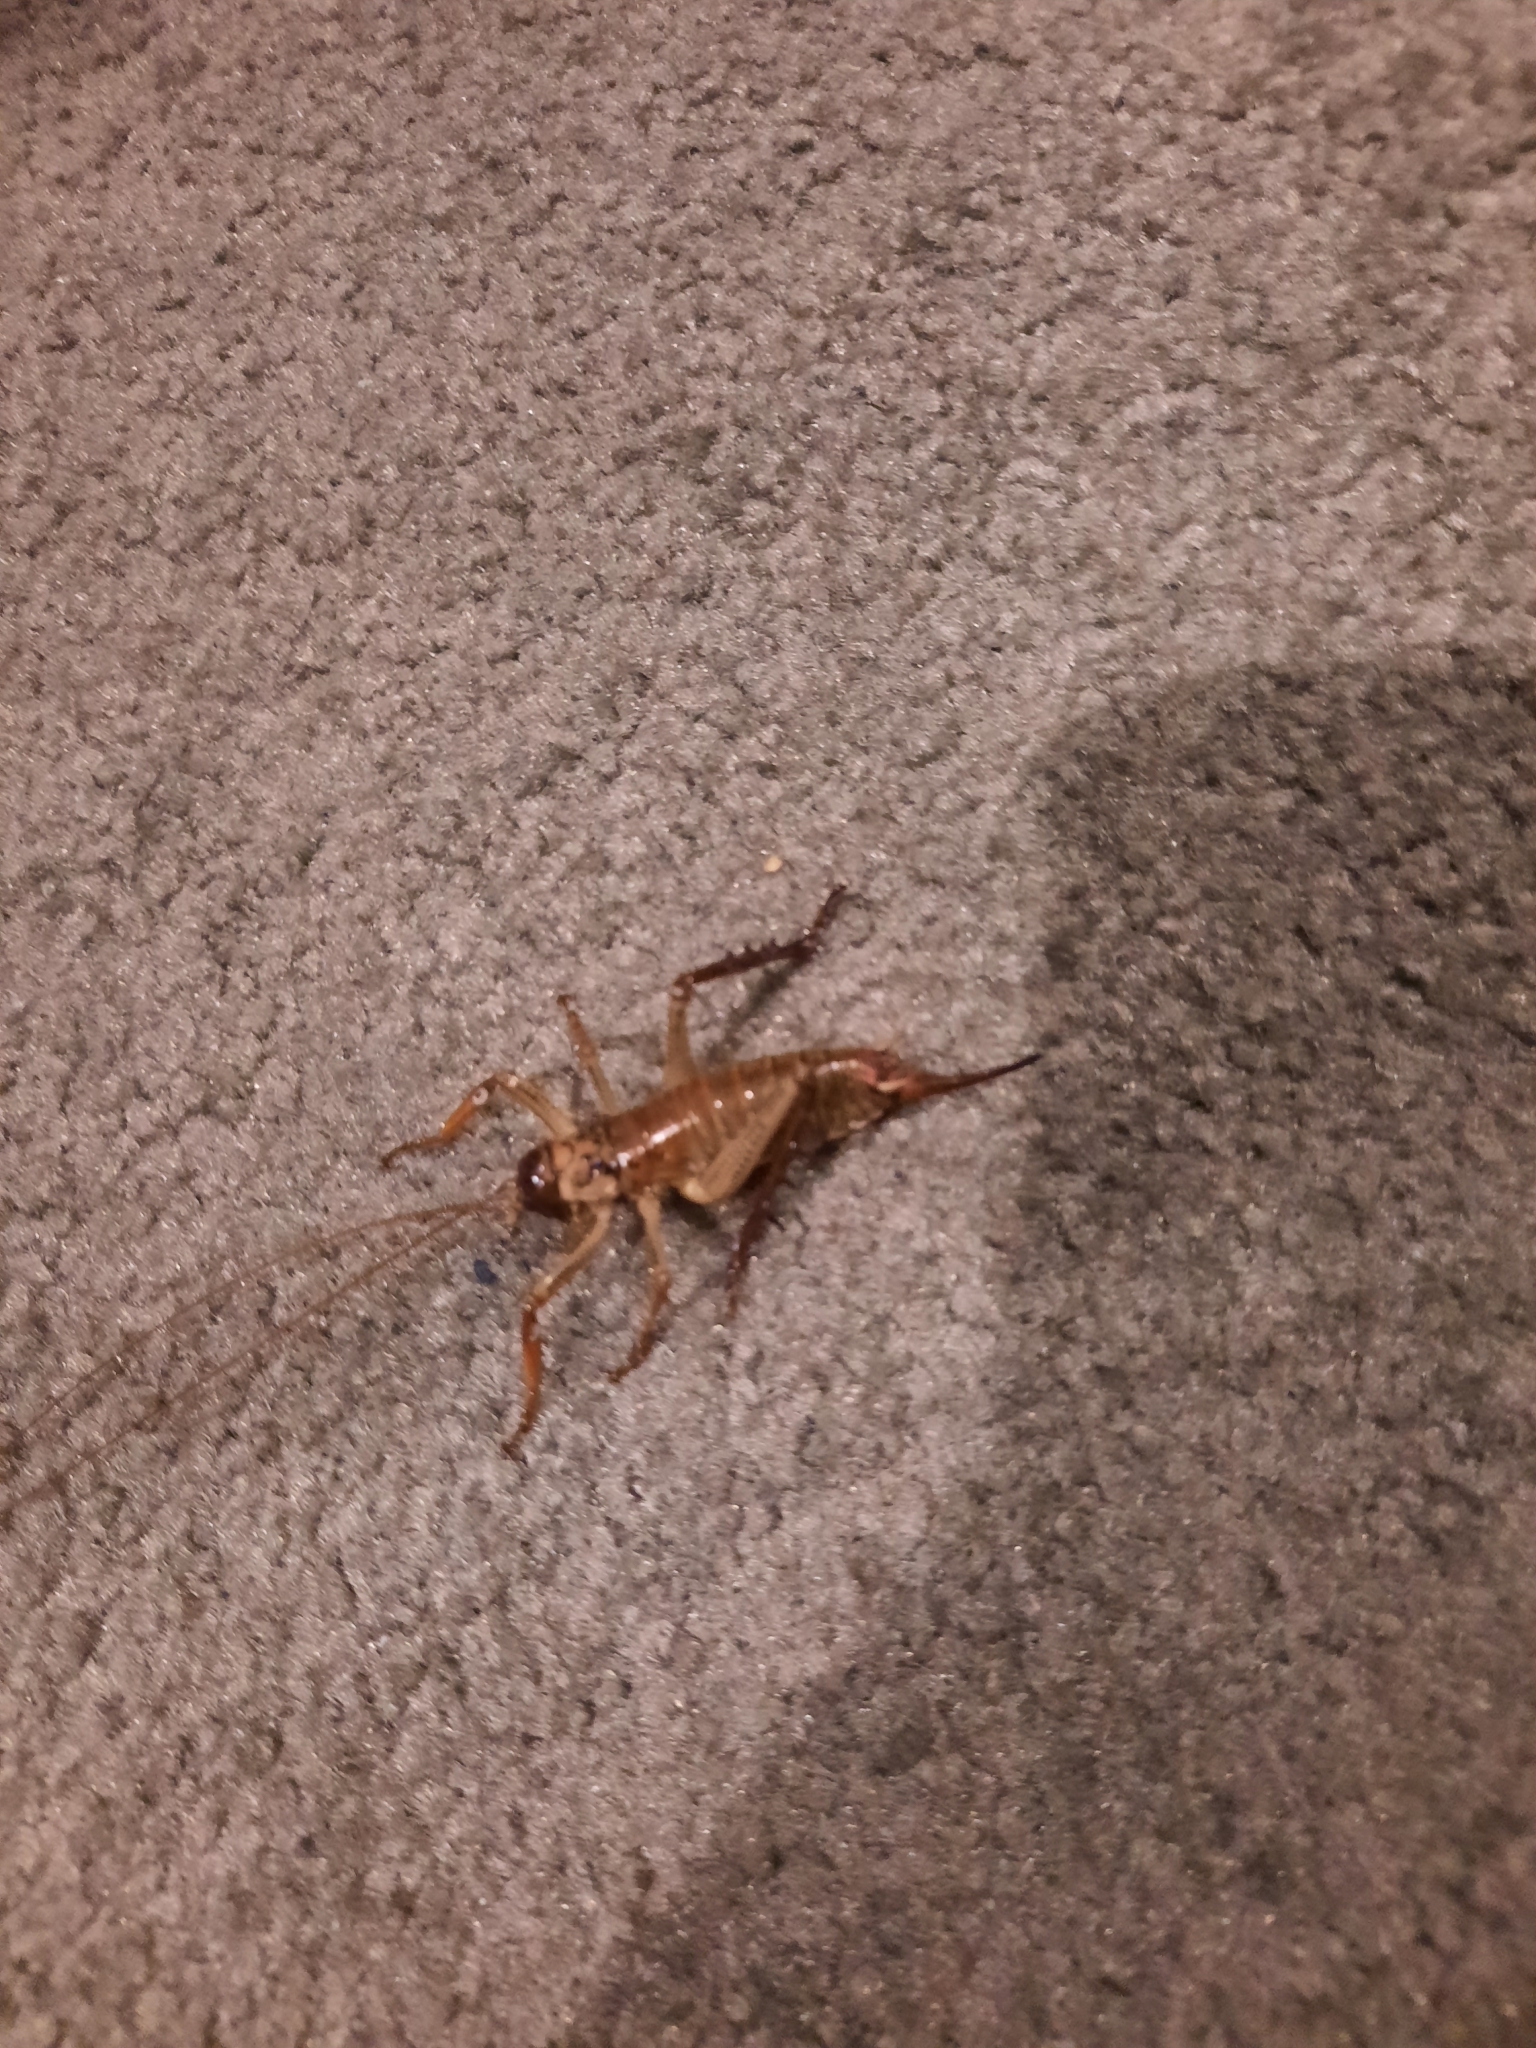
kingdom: Animalia
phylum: Arthropoda
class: Insecta
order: Orthoptera
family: Anostostomatidae
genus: Hemideina
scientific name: Hemideina thoracica
